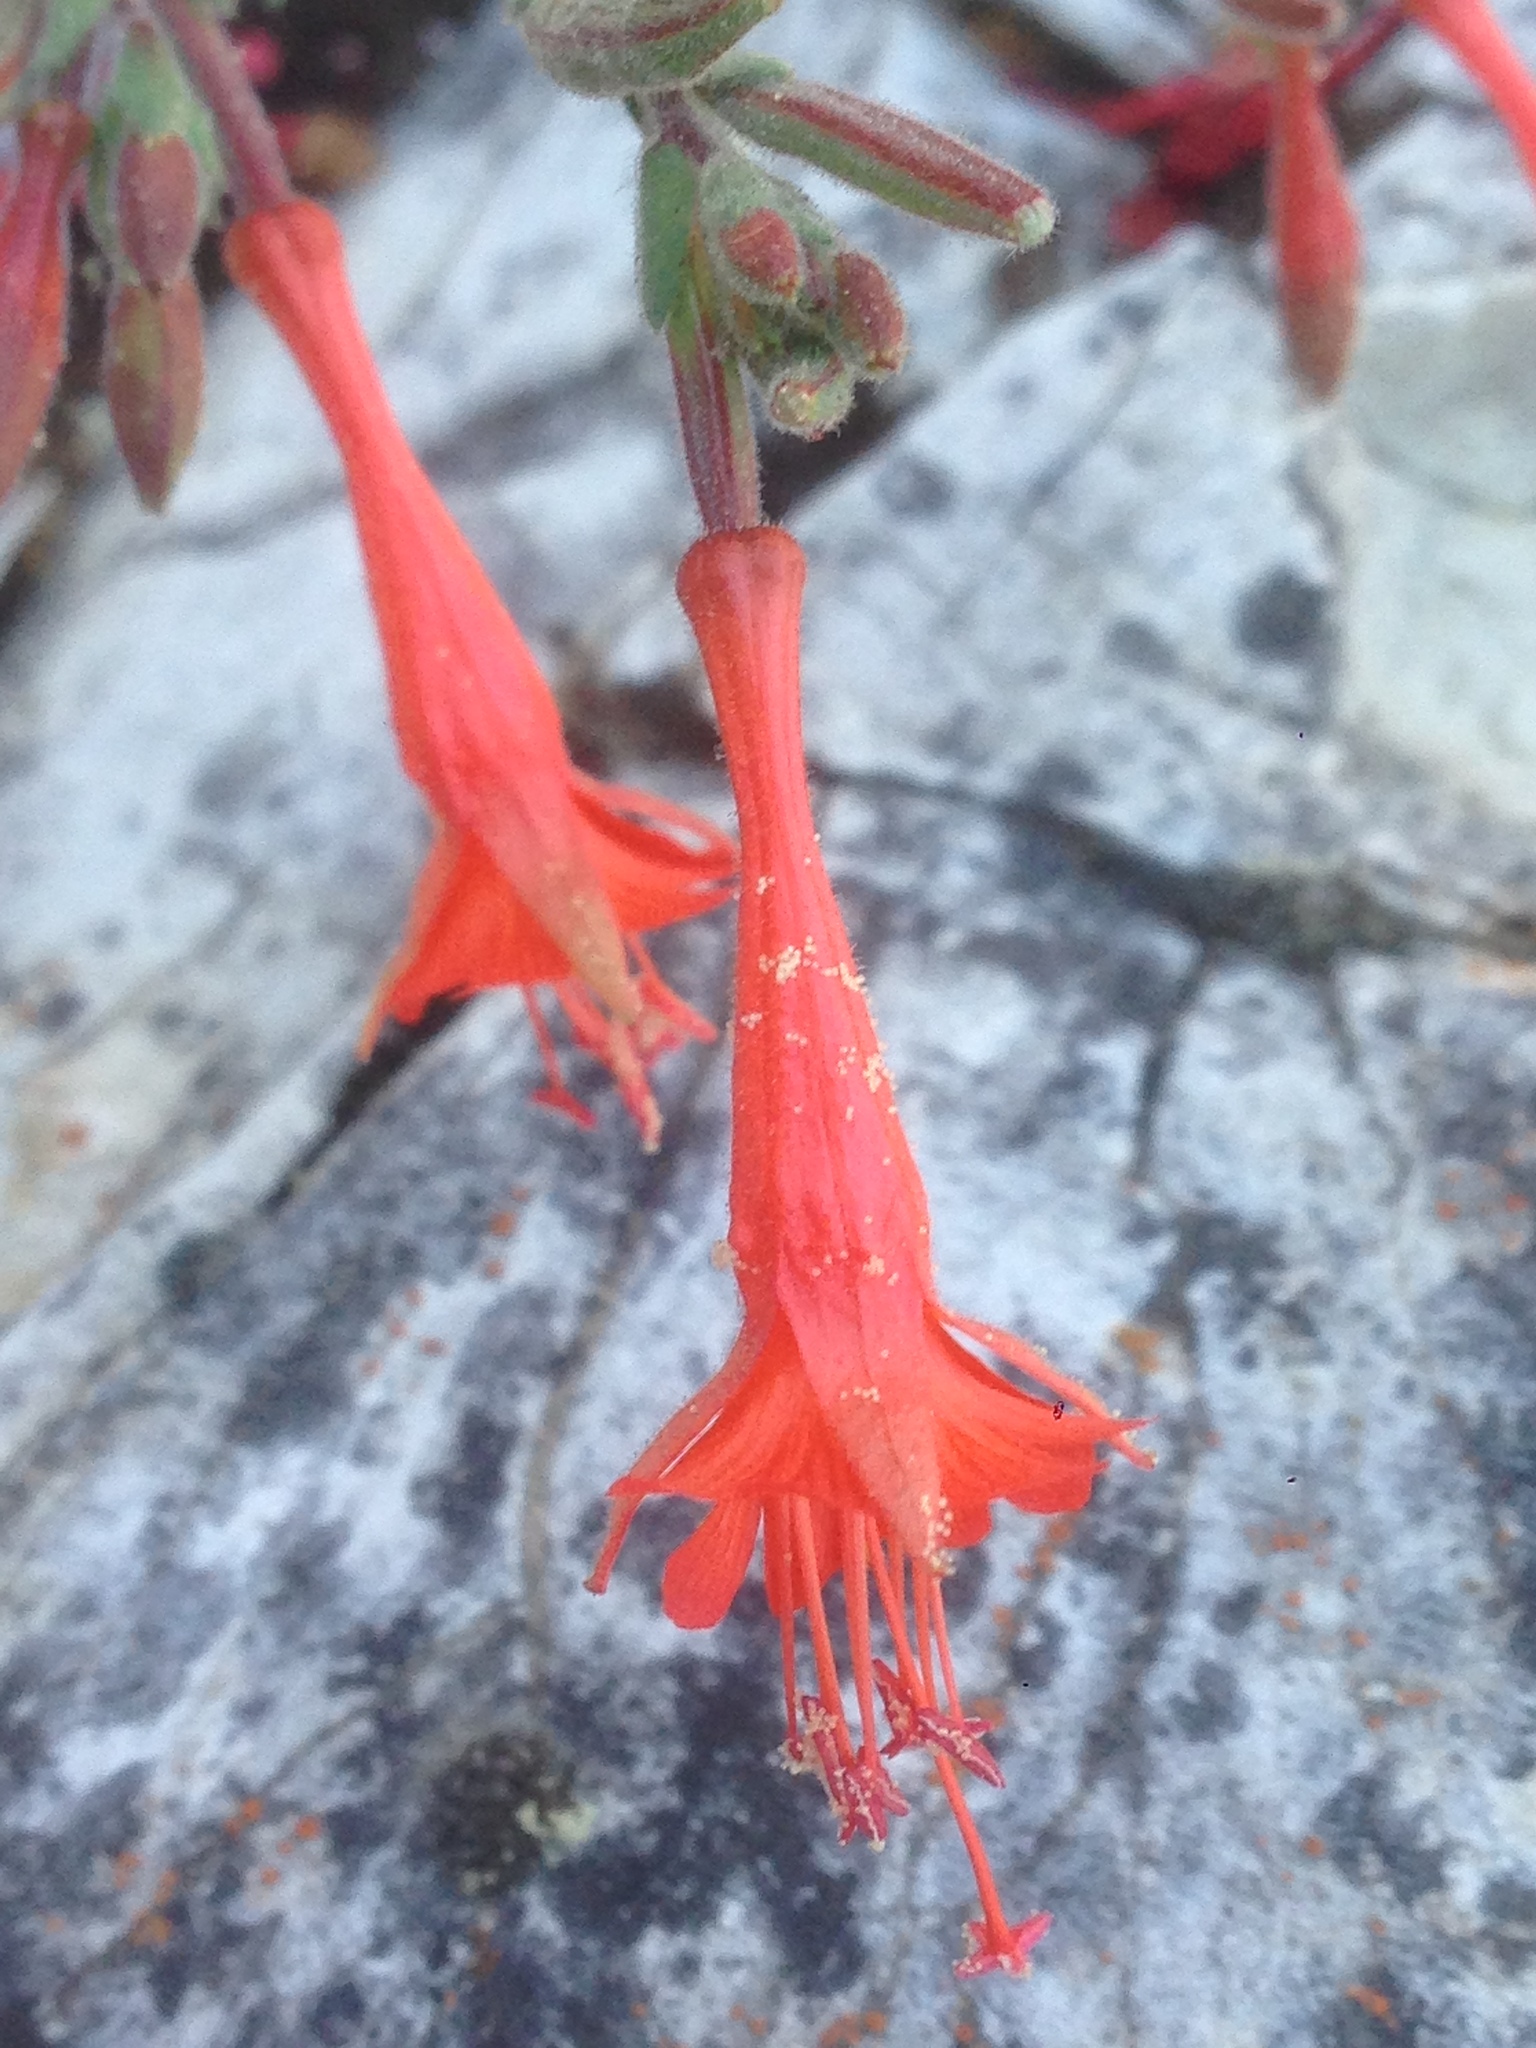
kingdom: Plantae
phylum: Tracheophyta
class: Magnoliopsida
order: Myrtales
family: Onagraceae
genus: Epilobium
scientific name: Epilobium canum
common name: California-fuchsia
